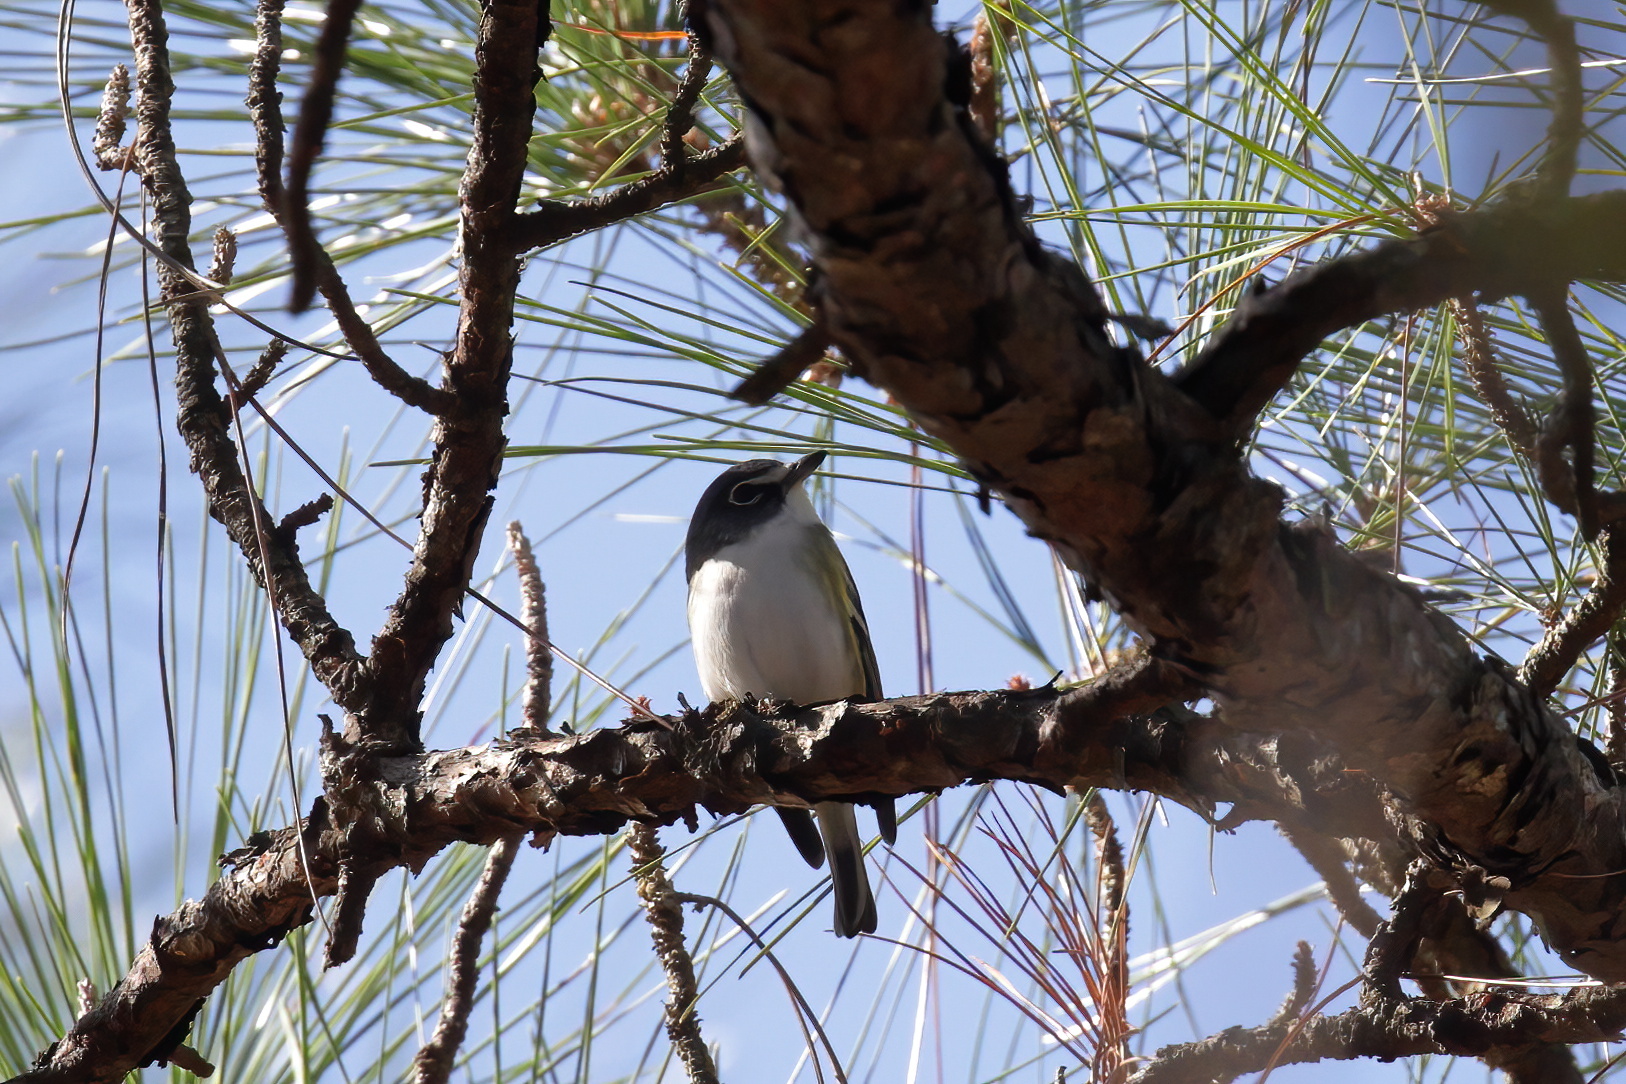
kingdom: Animalia
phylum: Chordata
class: Aves
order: Passeriformes
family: Vireonidae
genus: Vireo
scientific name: Vireo solitarius
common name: Blue-headed vireo
